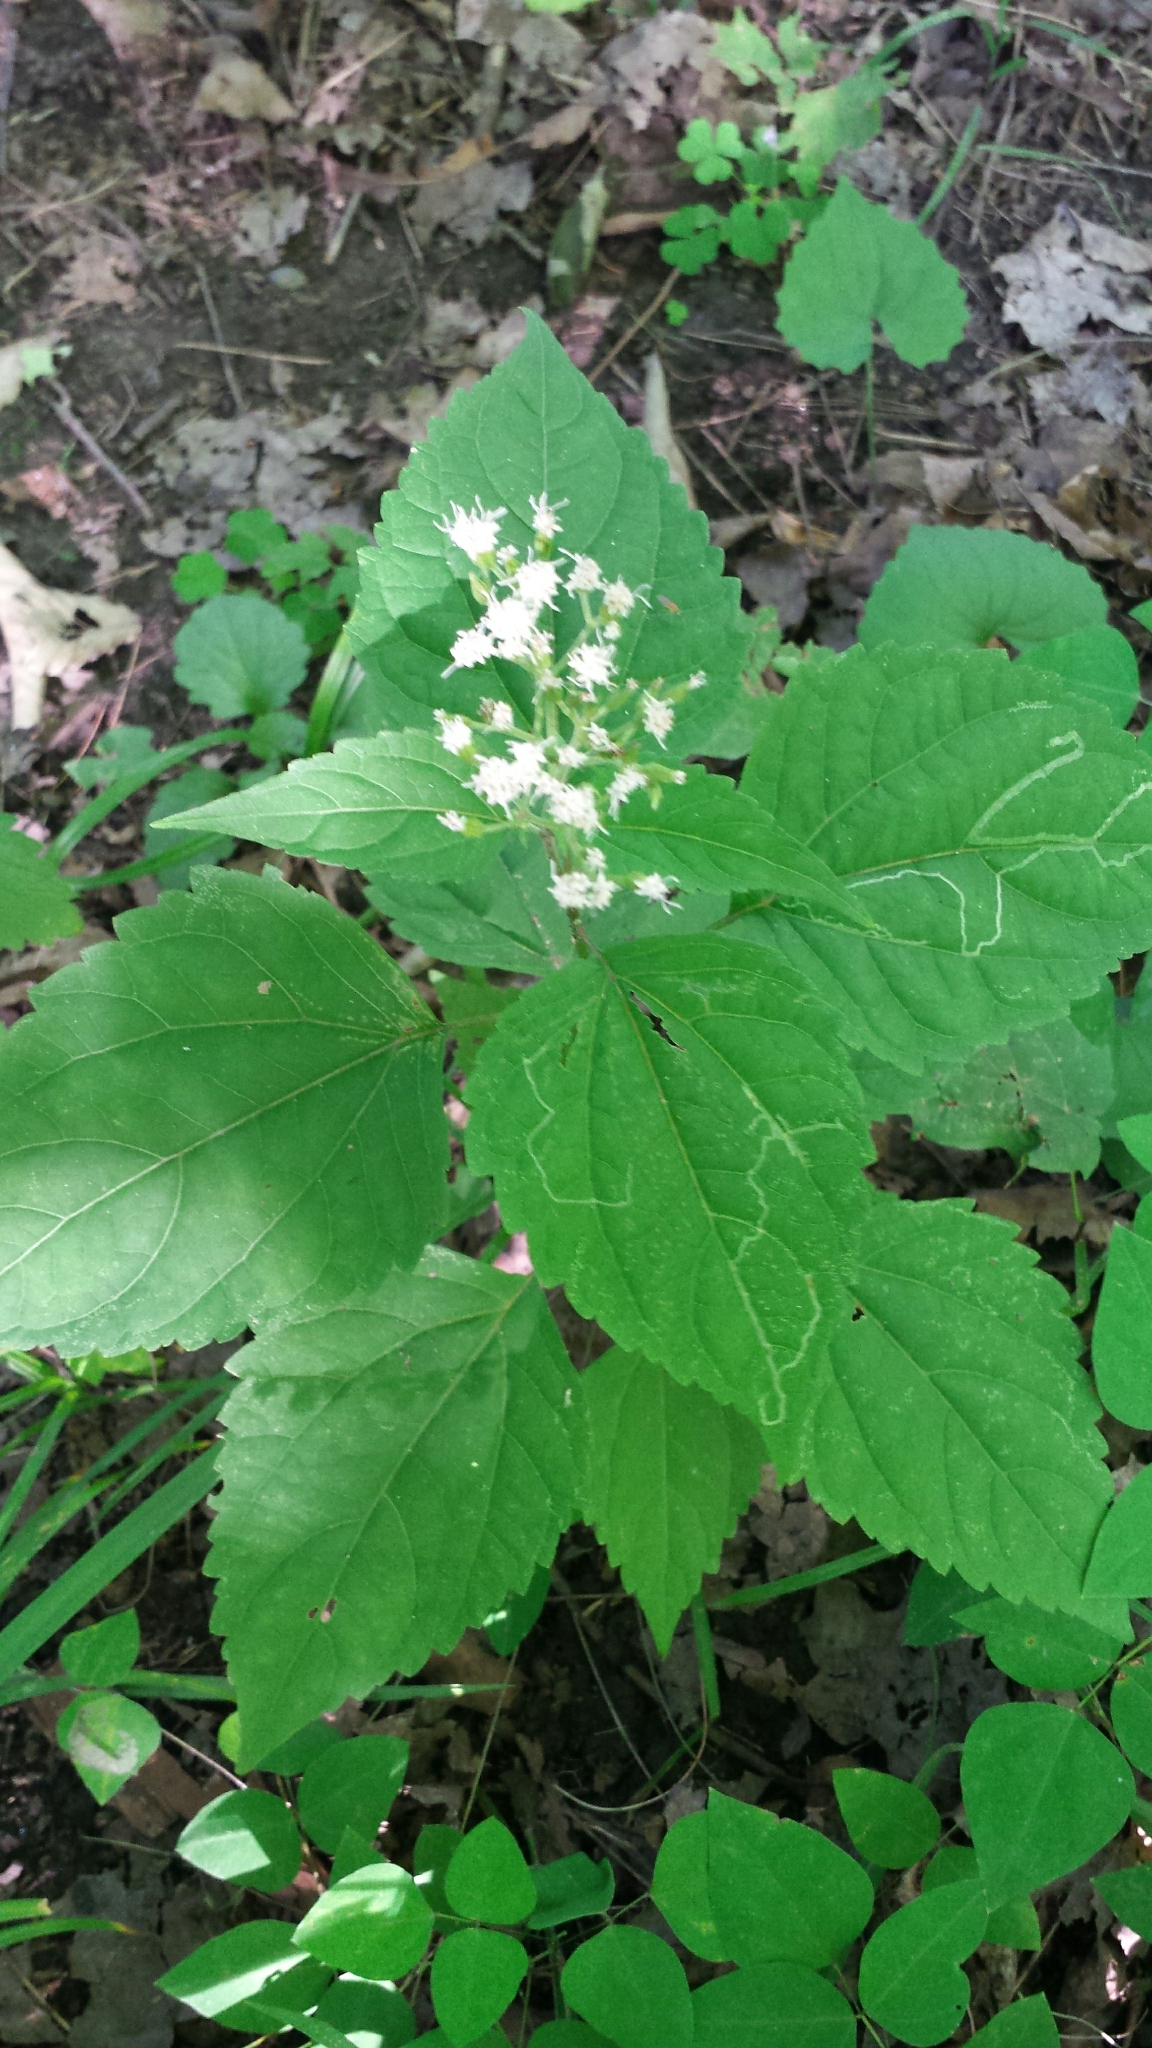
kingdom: Plantae
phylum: Tracheophyta
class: Magnoliopsida
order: Asterales
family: Asteraceae
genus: Ageratina
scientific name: Ageratina altissima
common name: White snakeroot
